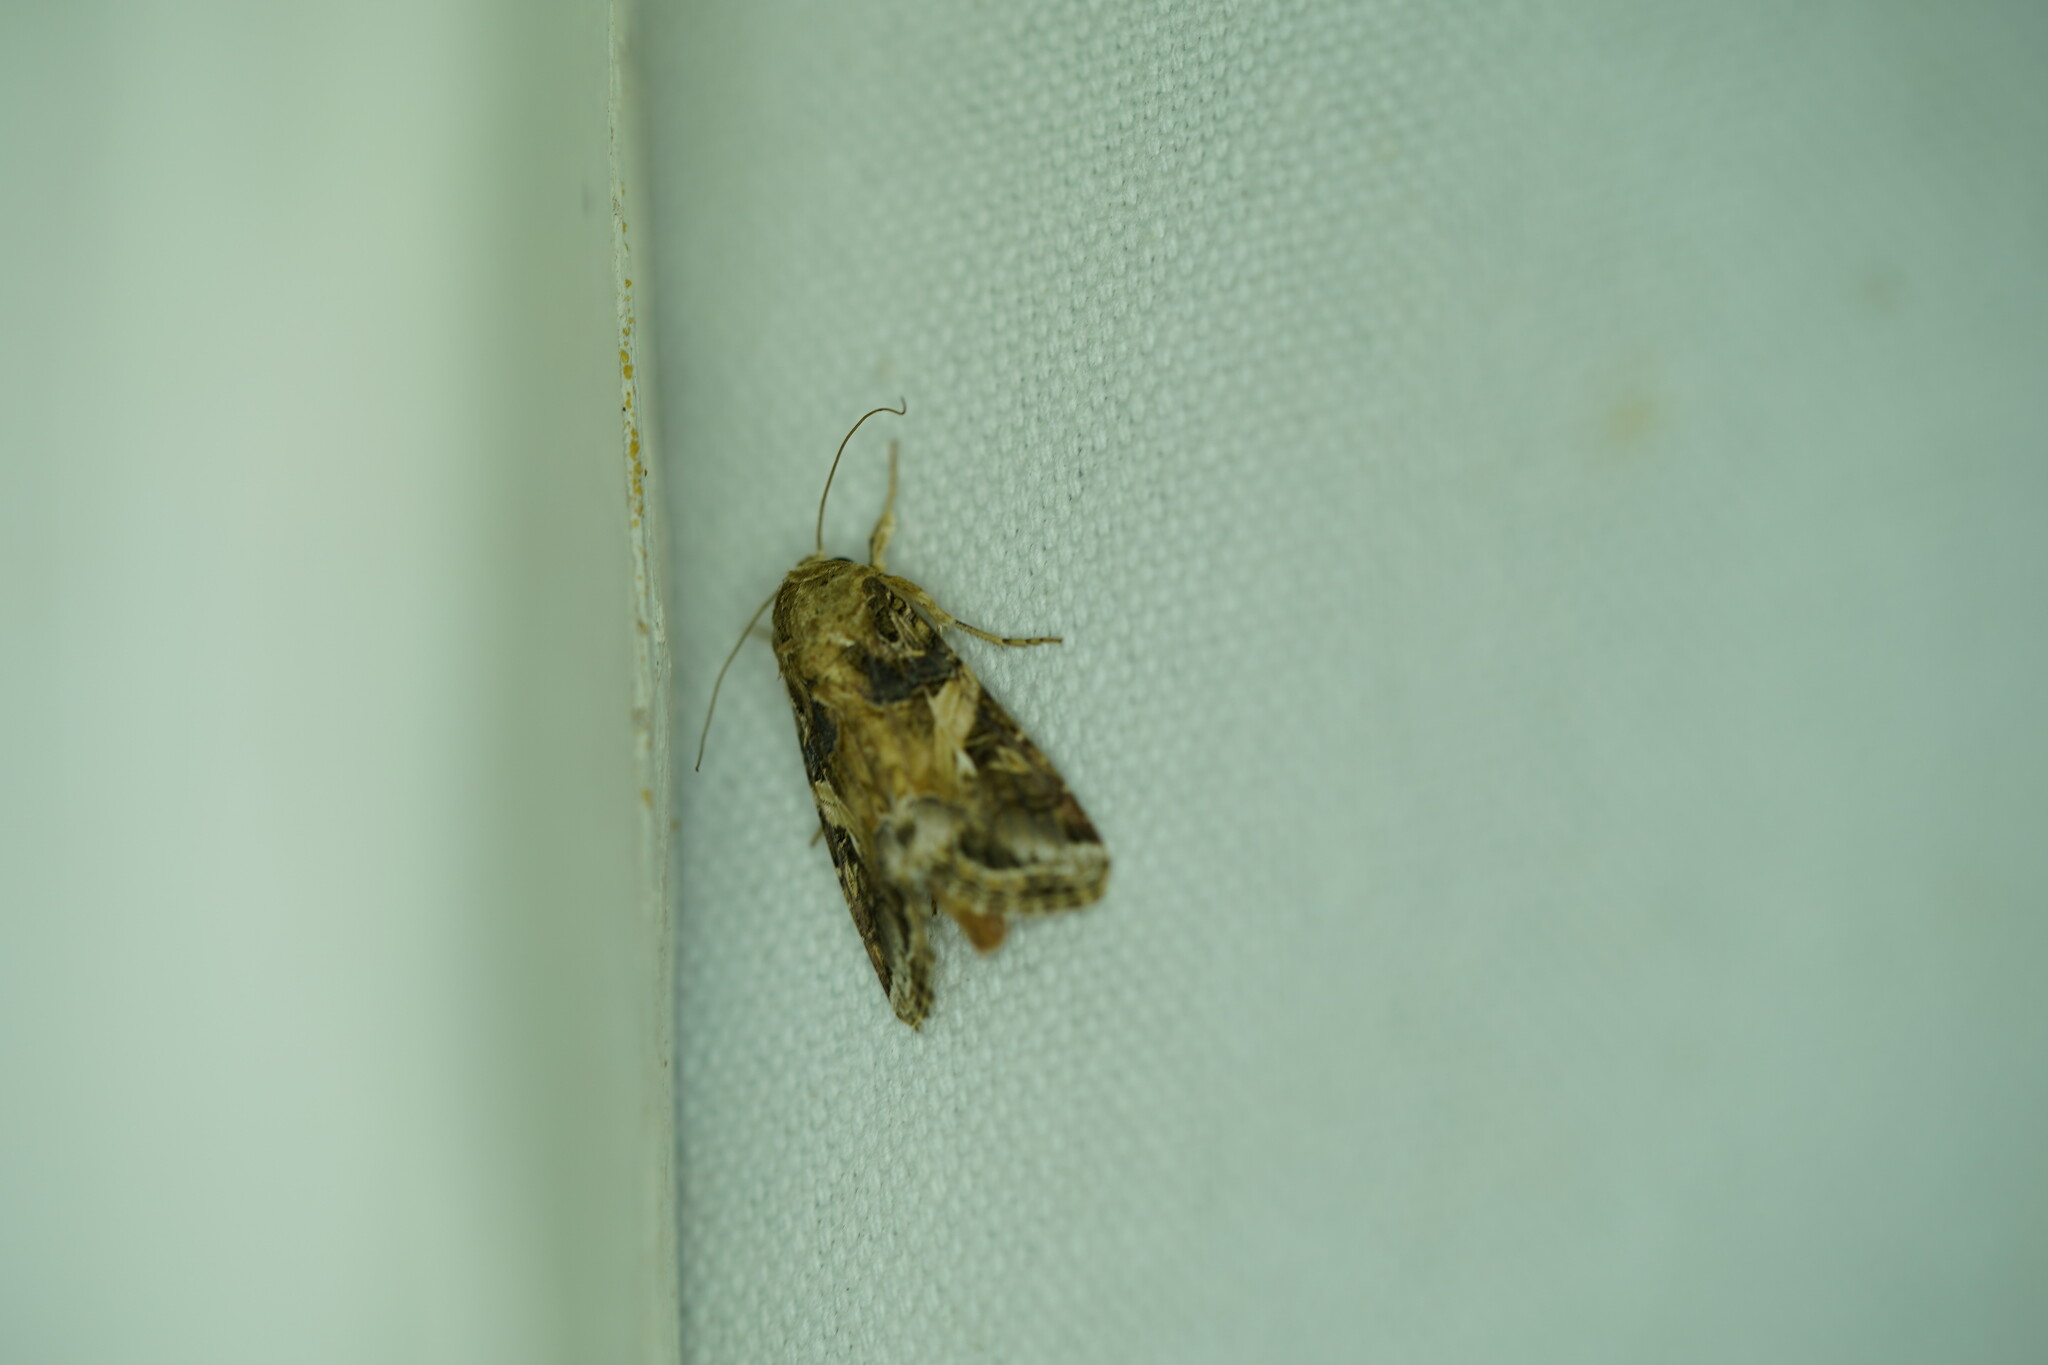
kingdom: Animalia
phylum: Arthropoda
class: Insecta
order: Lepidoptera
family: Noctuidae
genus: Spodoptera
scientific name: Spodoptera latifascia
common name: Velvet armyworm moth
